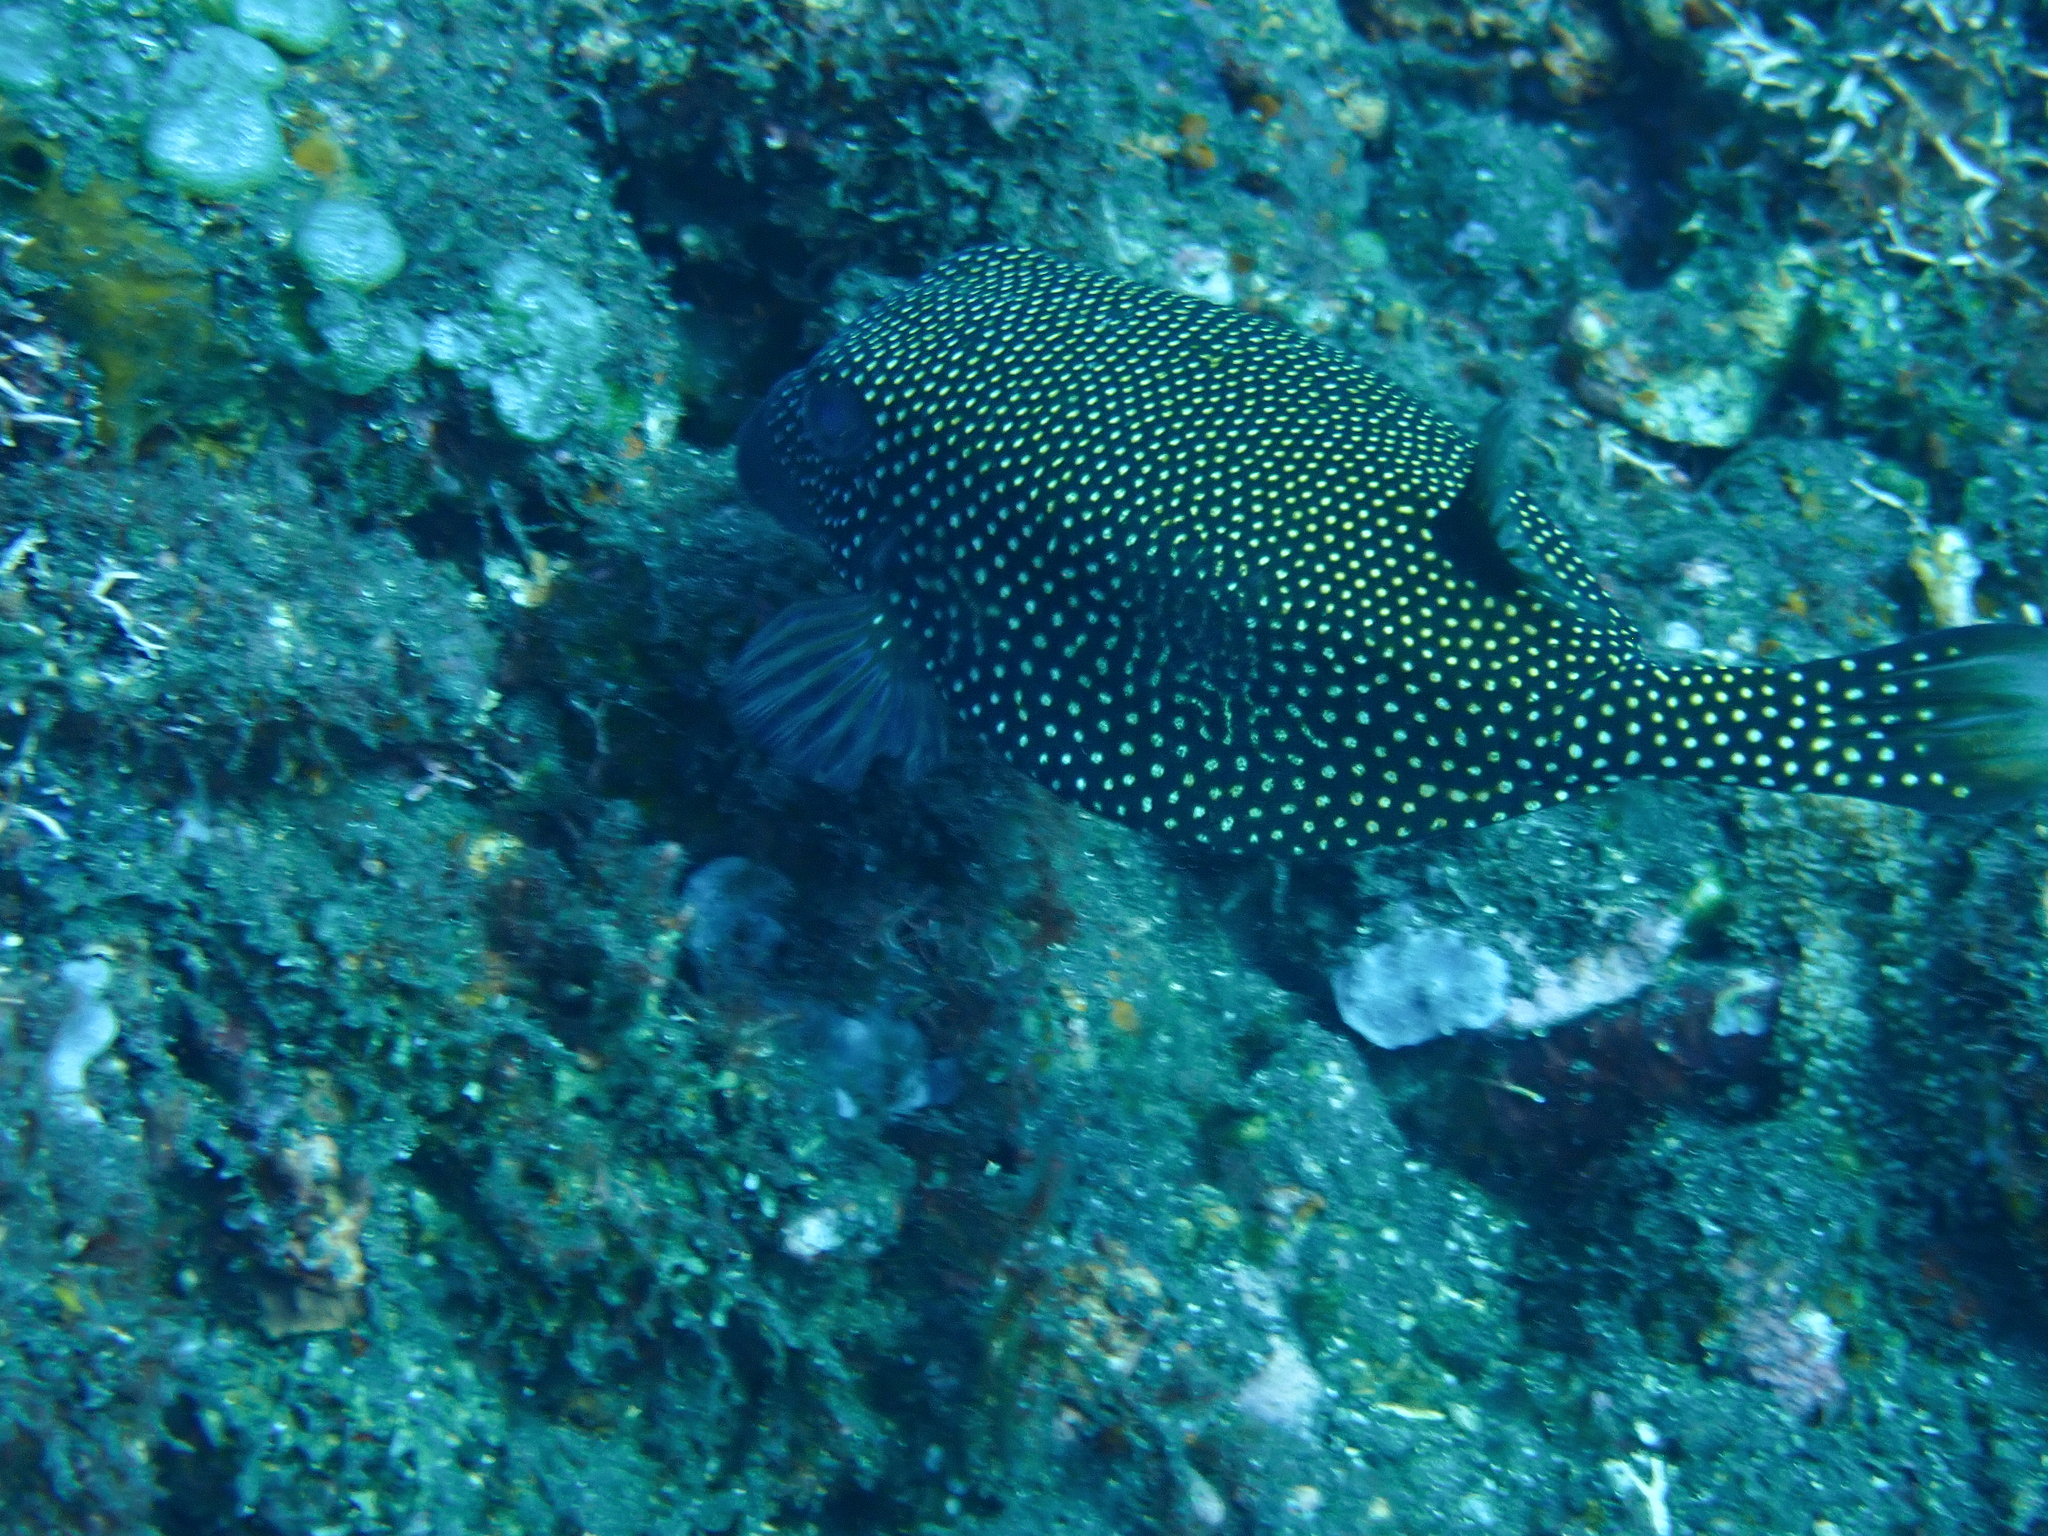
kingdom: Animalia
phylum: Chordata
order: Tetraodontiformes
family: Ostraciidae
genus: Ostracion
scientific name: Ostracion meleagris
